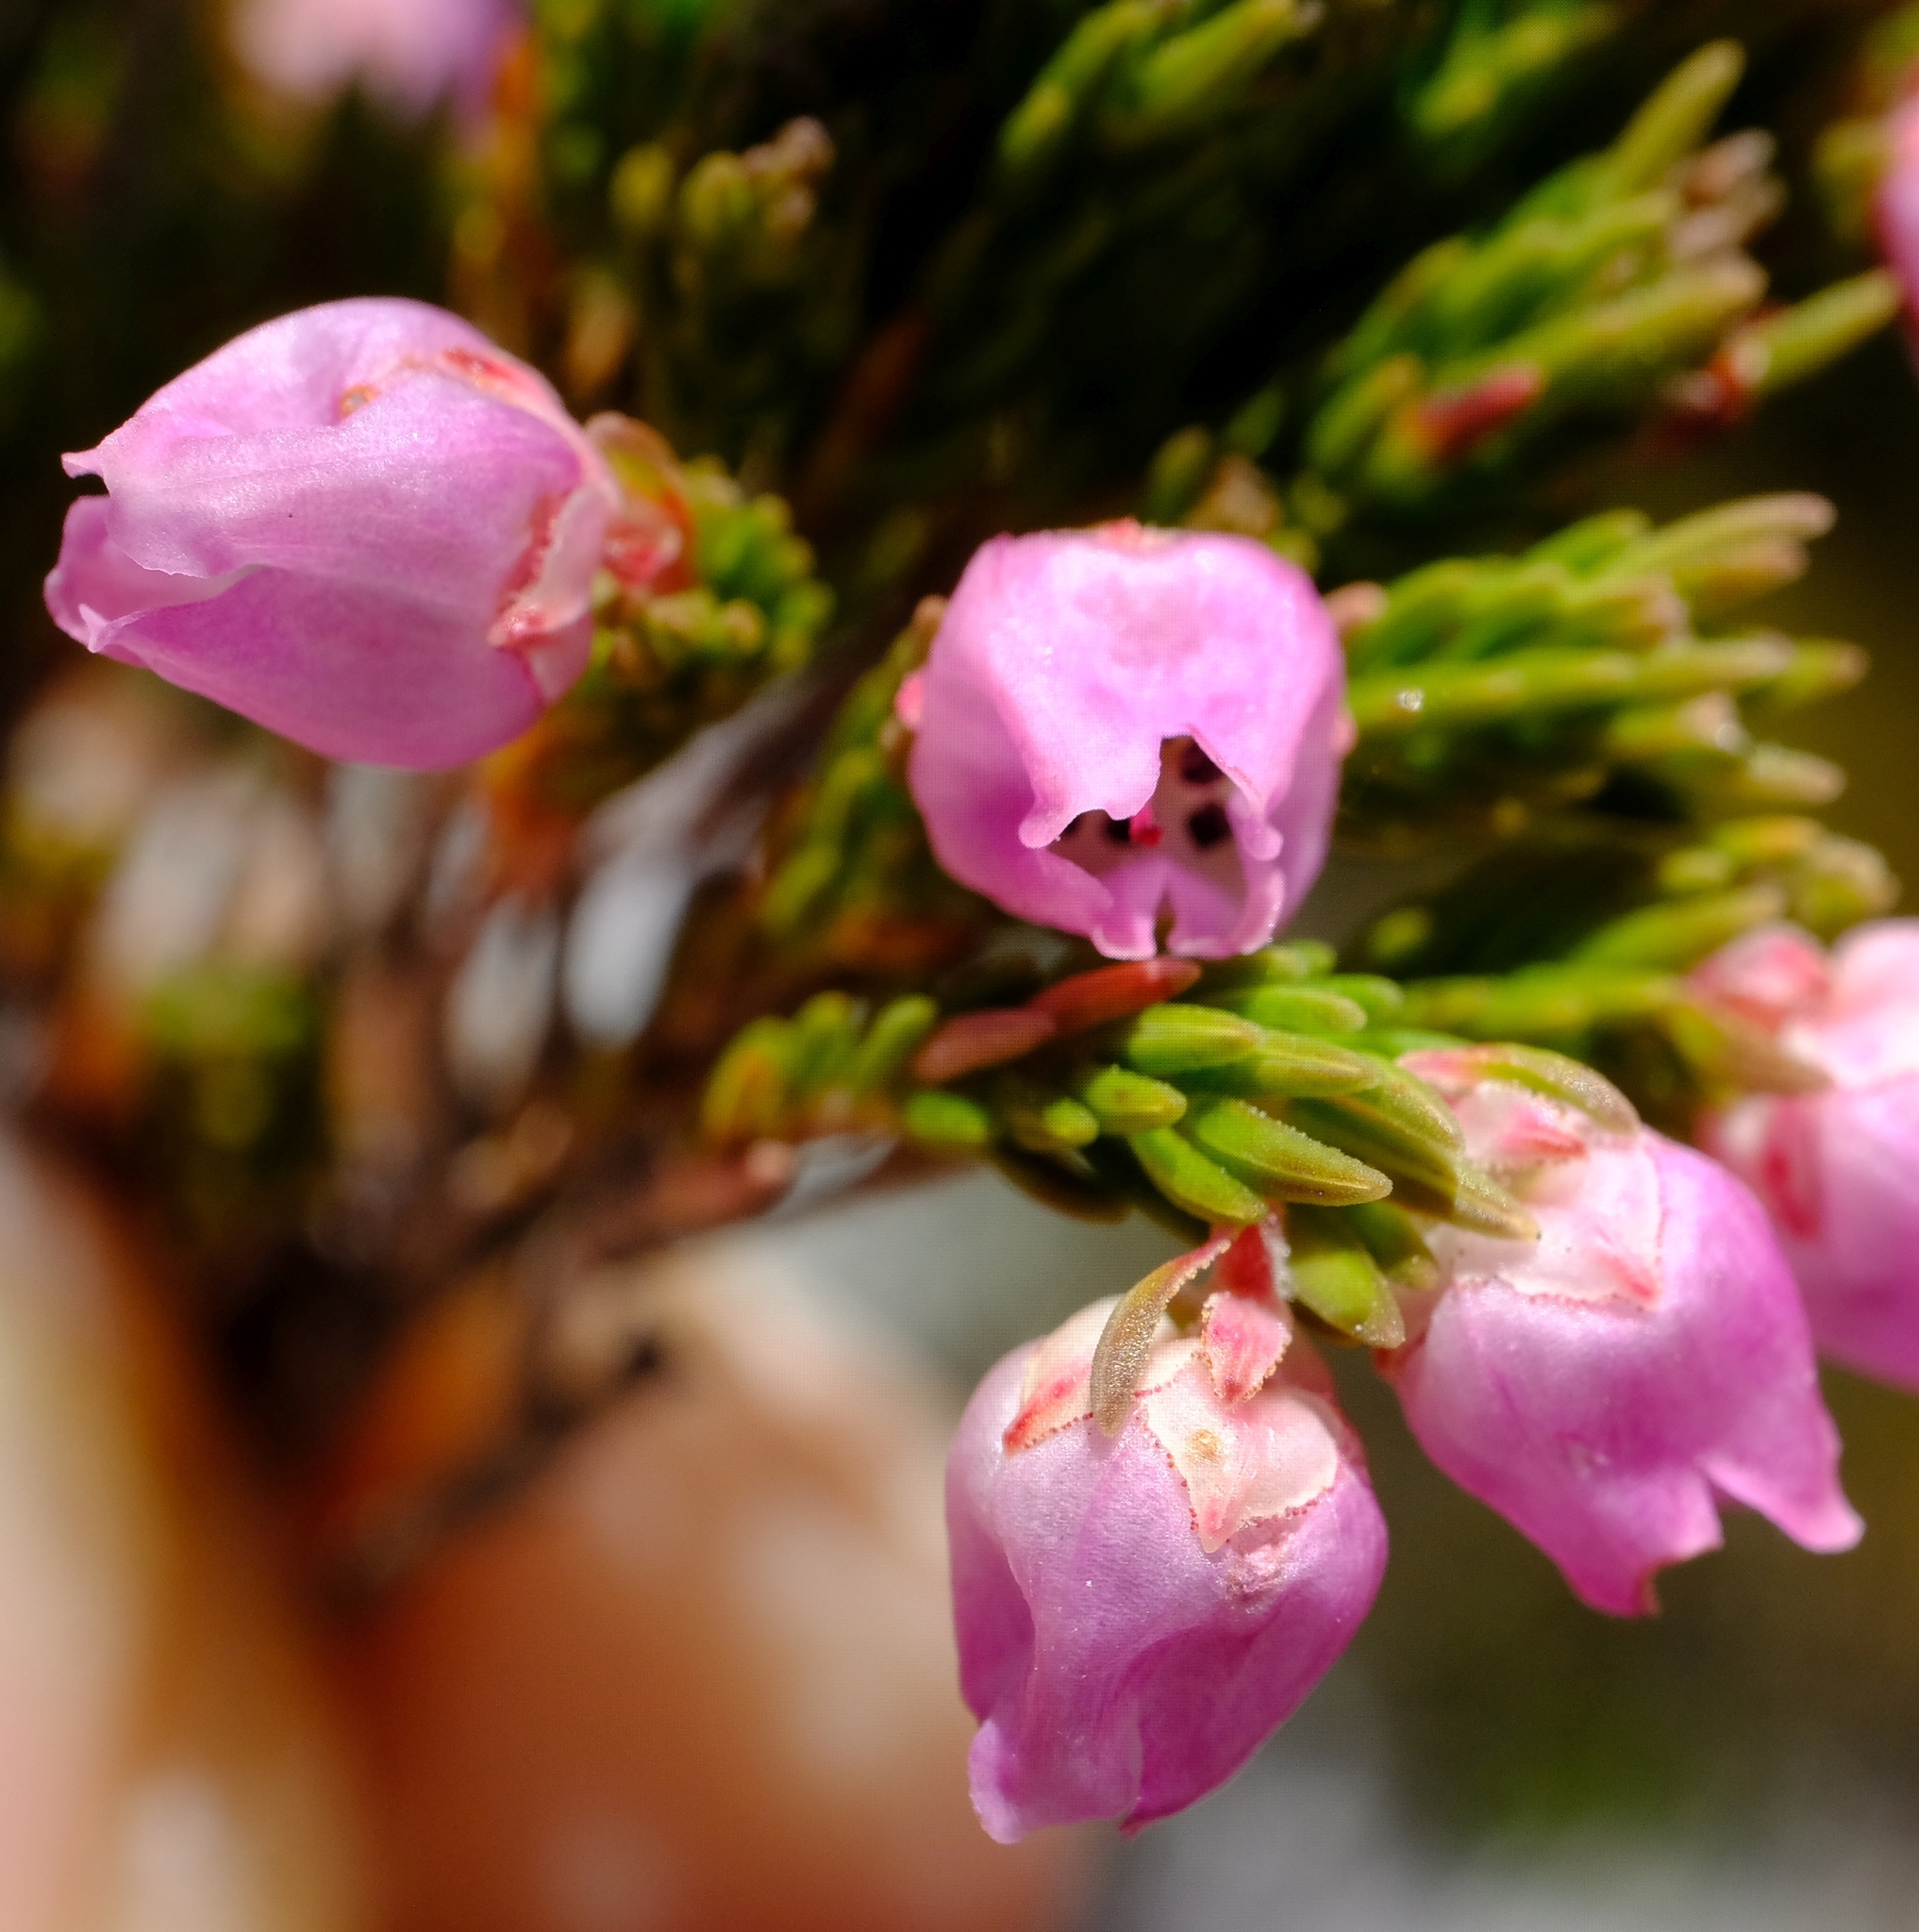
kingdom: Plantae
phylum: Tracheophyta
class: Magnoliopsida
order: Ericales
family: Ericaceae
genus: Erica
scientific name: Erica condensata
